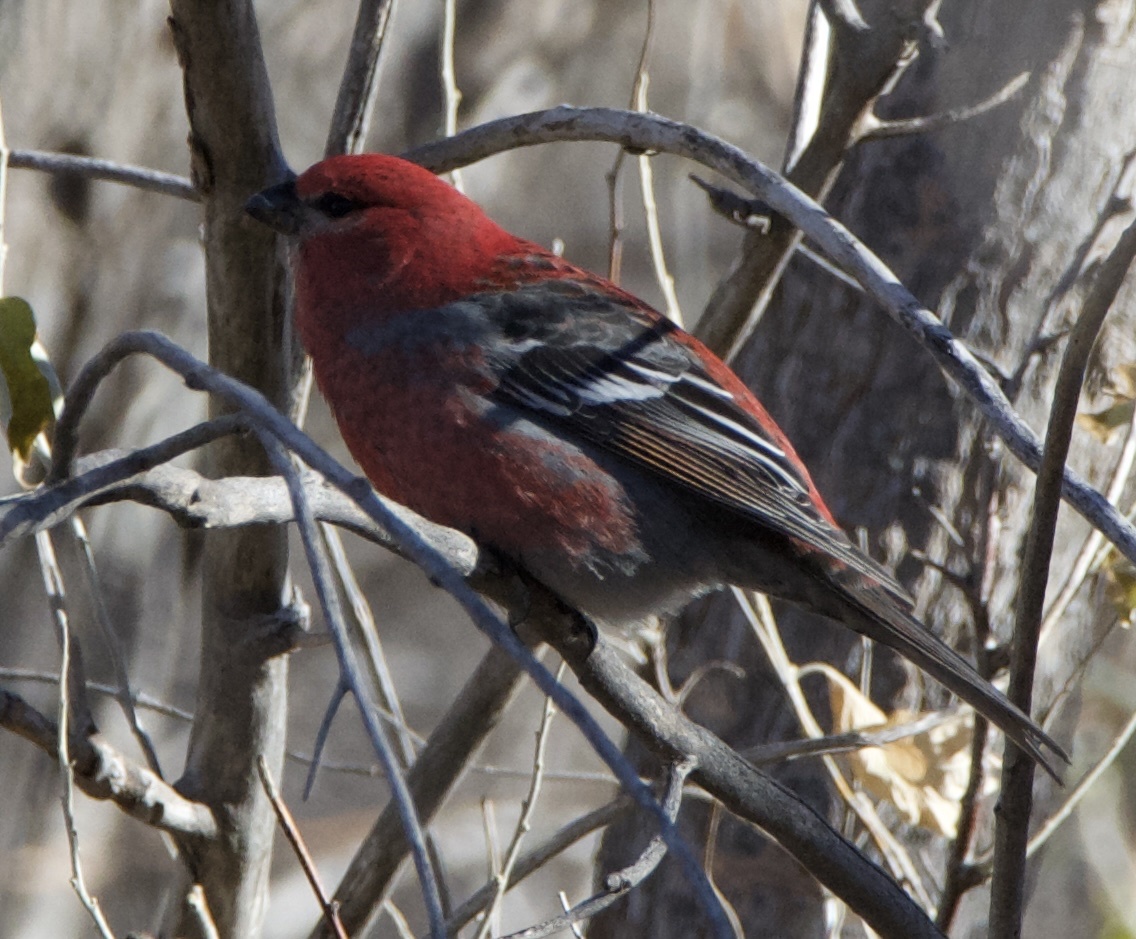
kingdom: Animalia
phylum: Chordata
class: Aves
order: Passeriformes
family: Fringillidae
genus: Pinicola
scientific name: Pinicola enucleator
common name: Pine grosbeak
